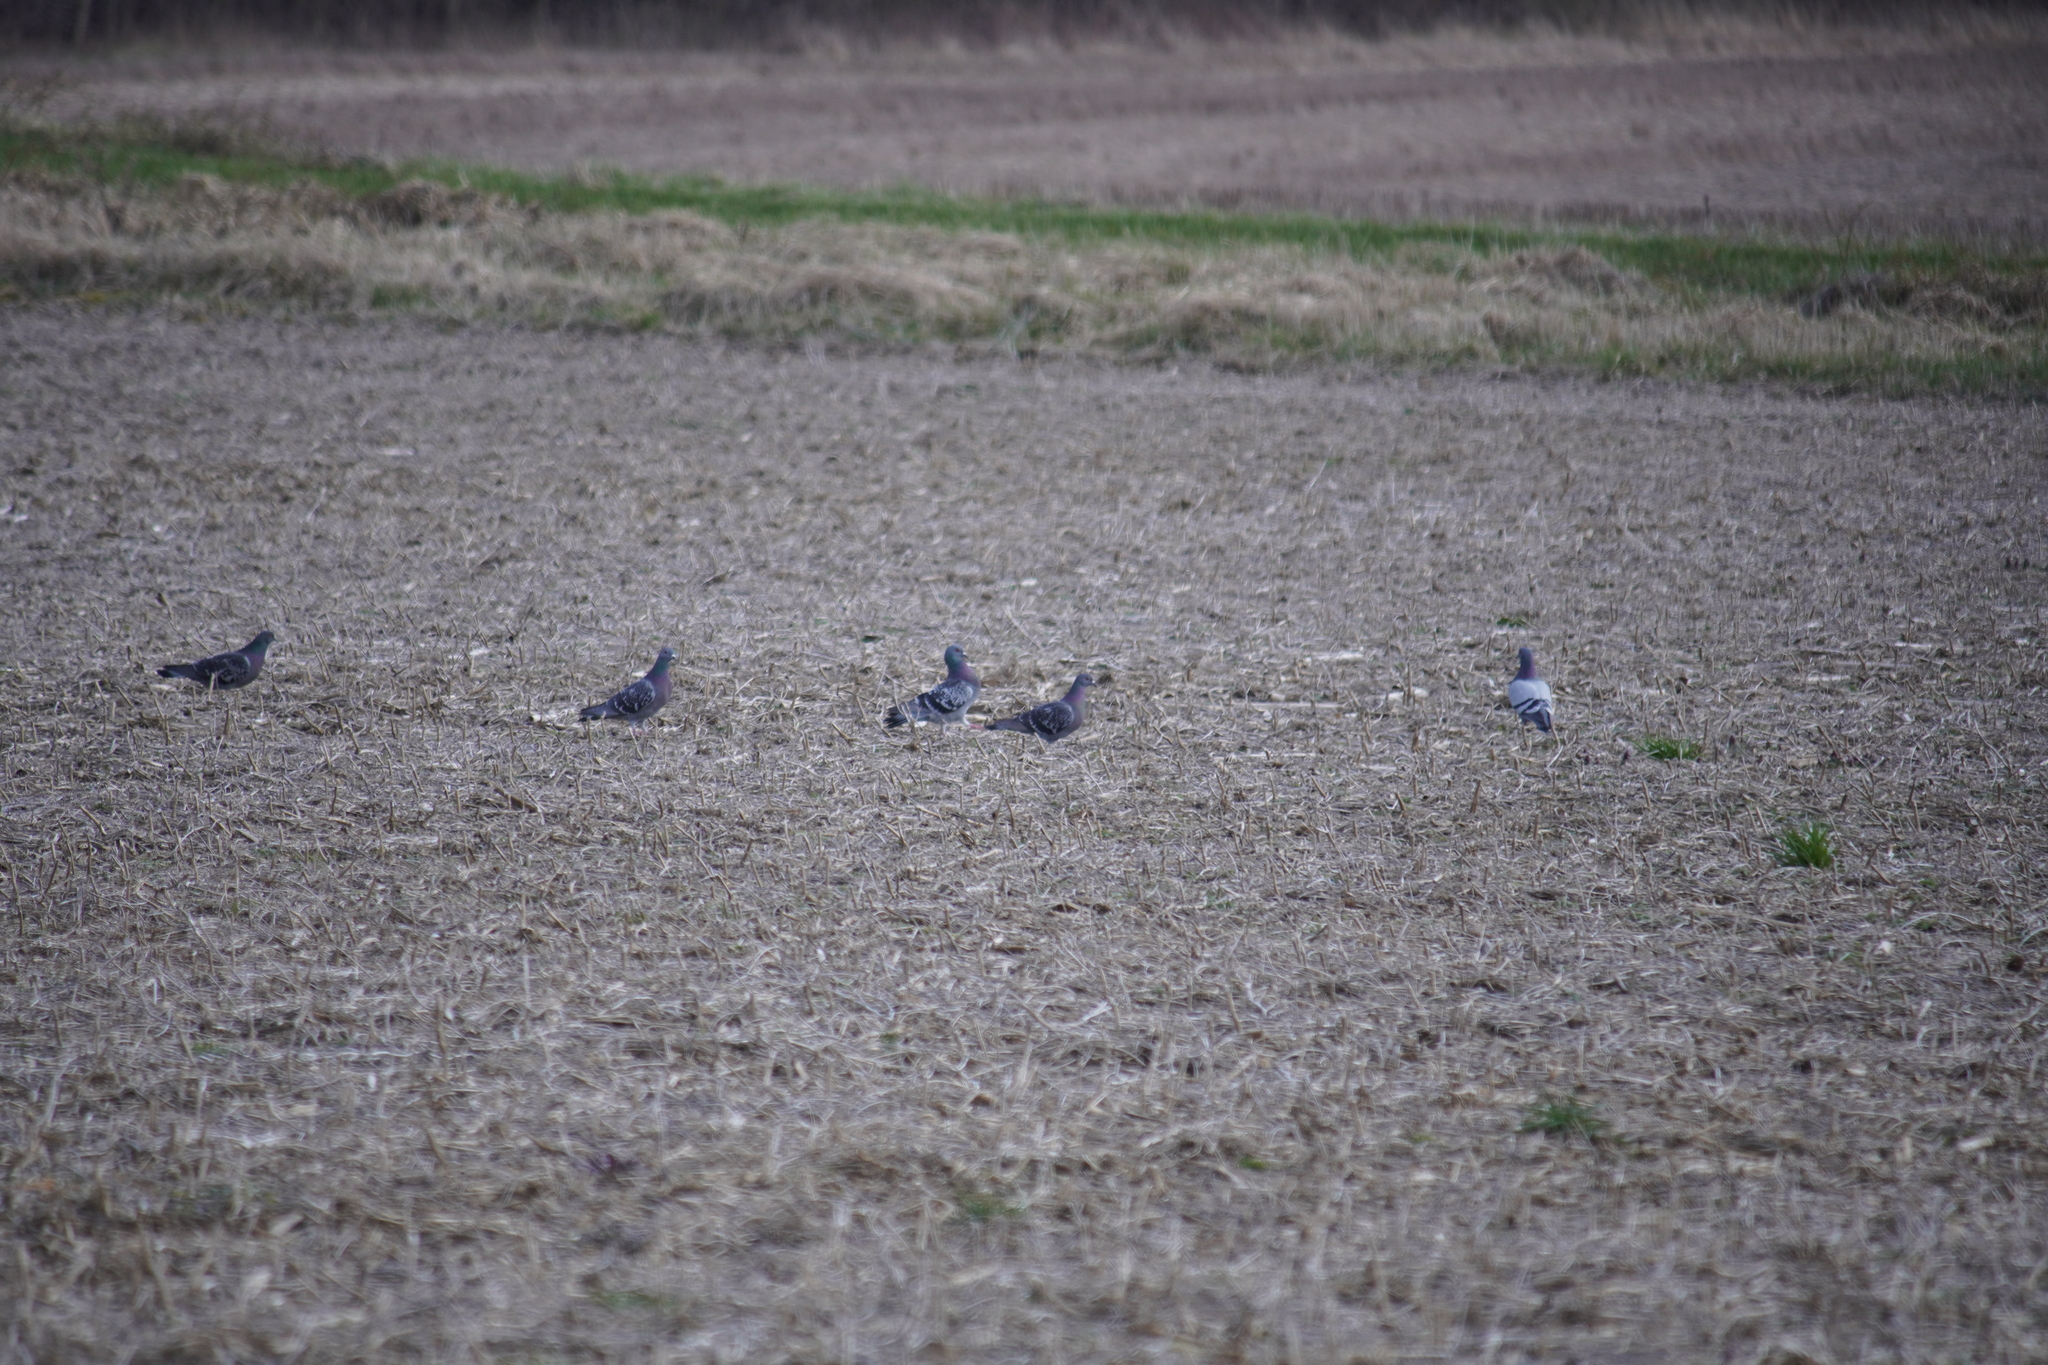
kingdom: Animalia
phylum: Chordata
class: Aves
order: Columbiformes
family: Columbidae
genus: Columba
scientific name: Columba livia
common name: Rock pigeon
